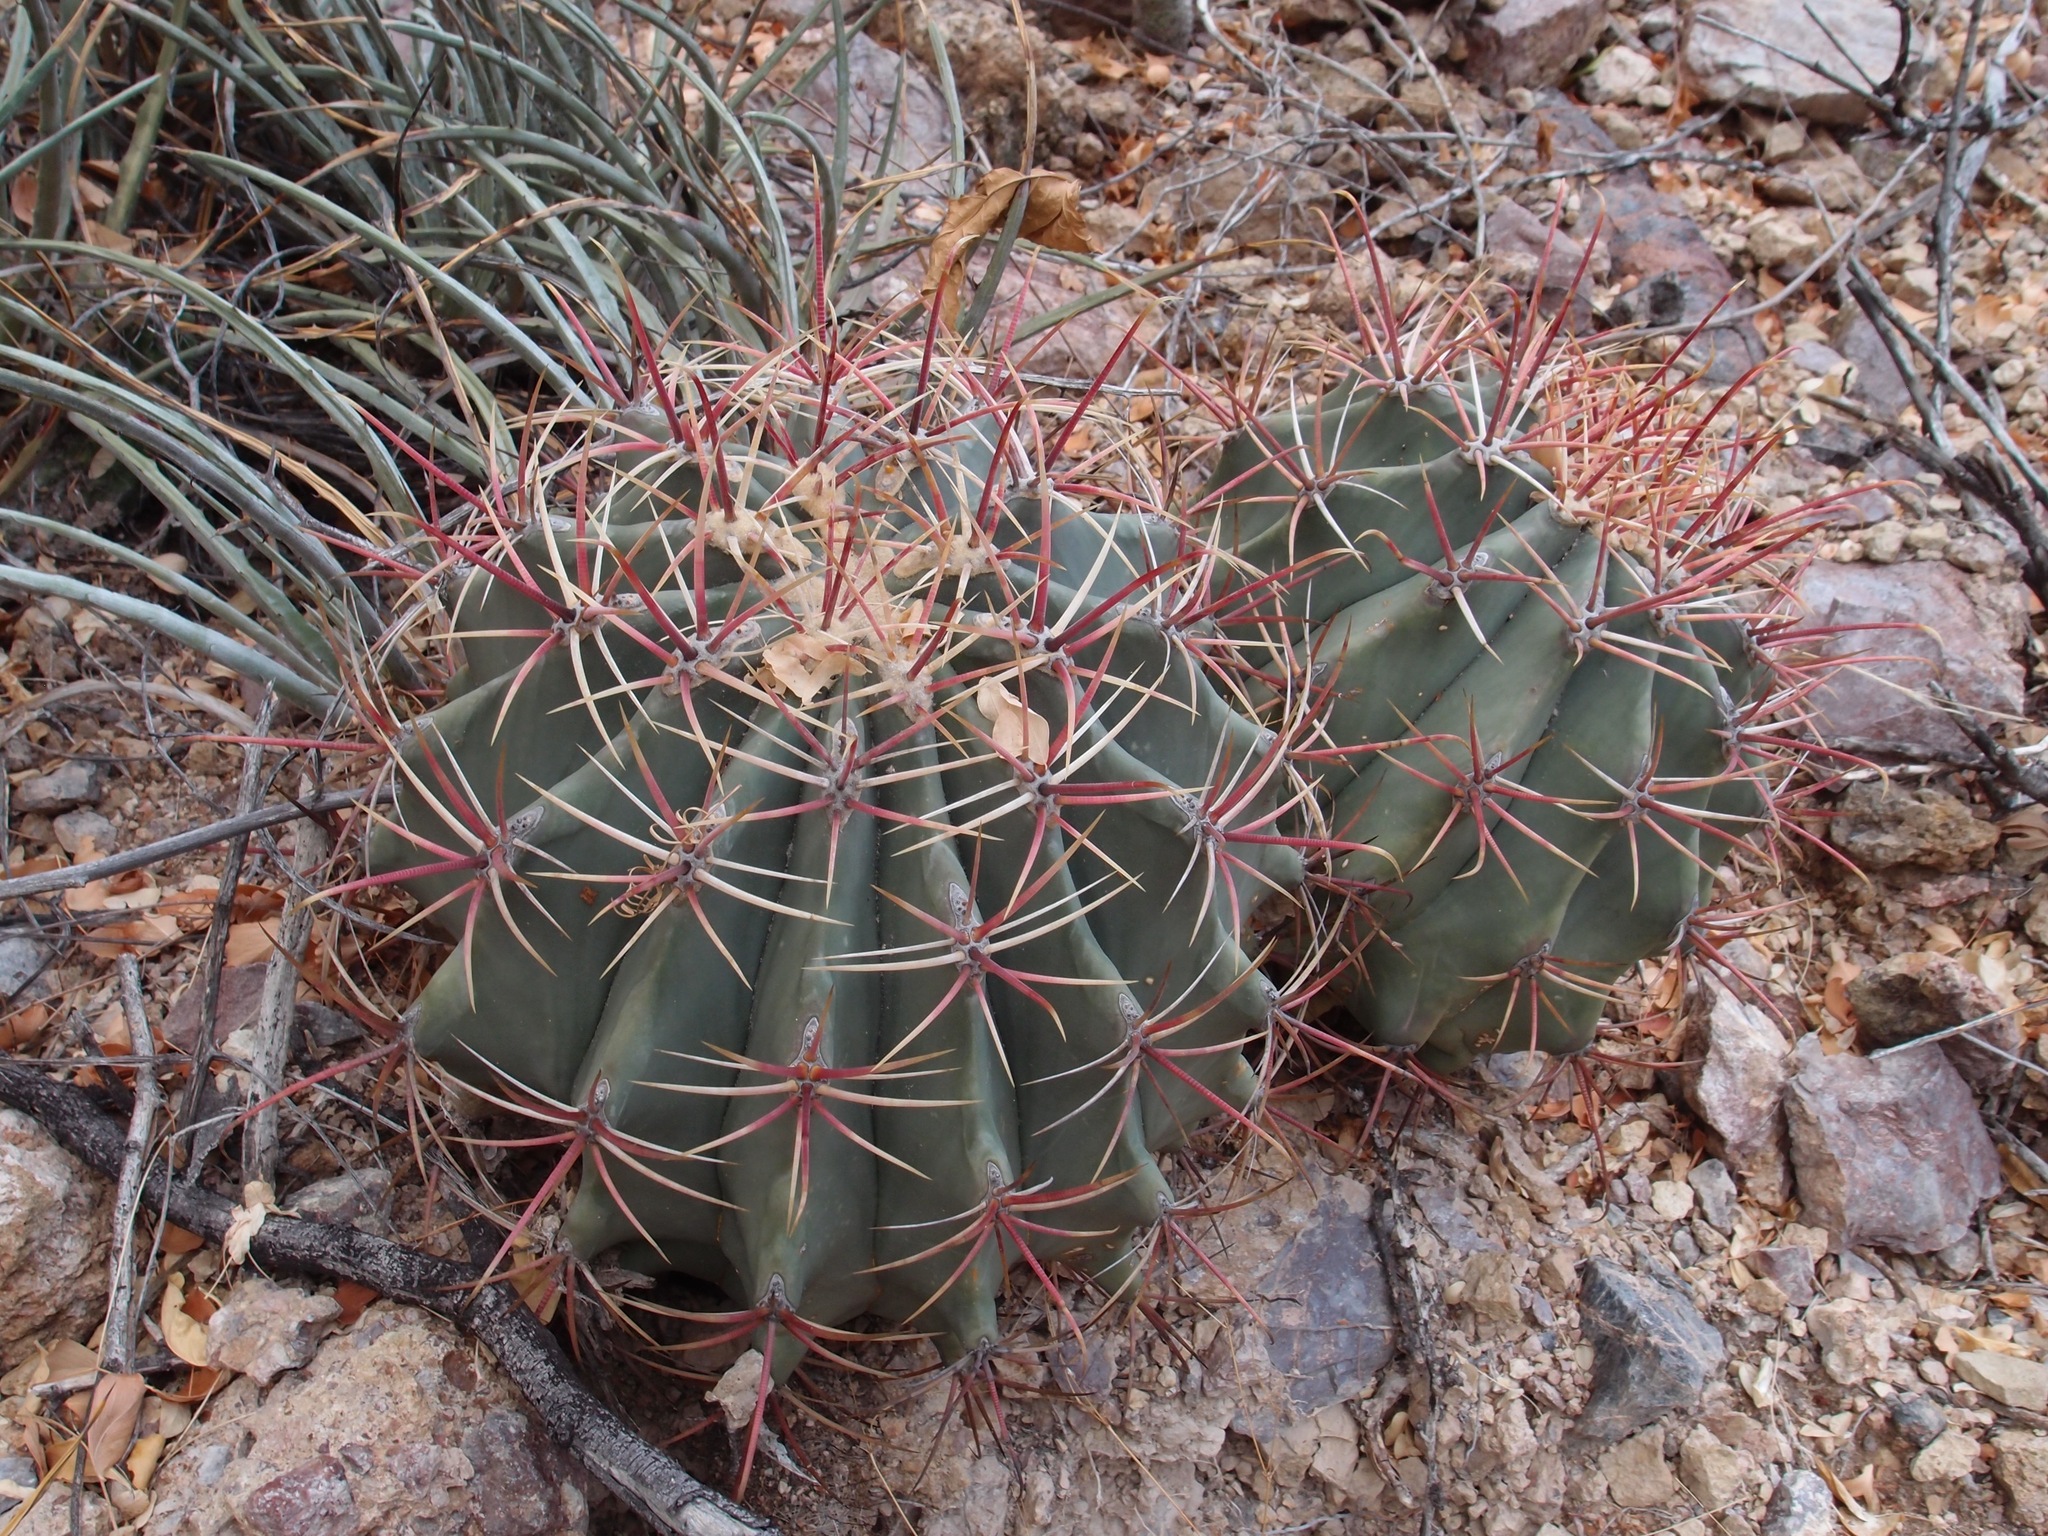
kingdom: Plantae
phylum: Tracheophyta
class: Magnoliopsida
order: Caryophyllales
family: Cactaceae
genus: Ferocactus
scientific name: Ferocactus emoryi
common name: Emory's barrel cactus
